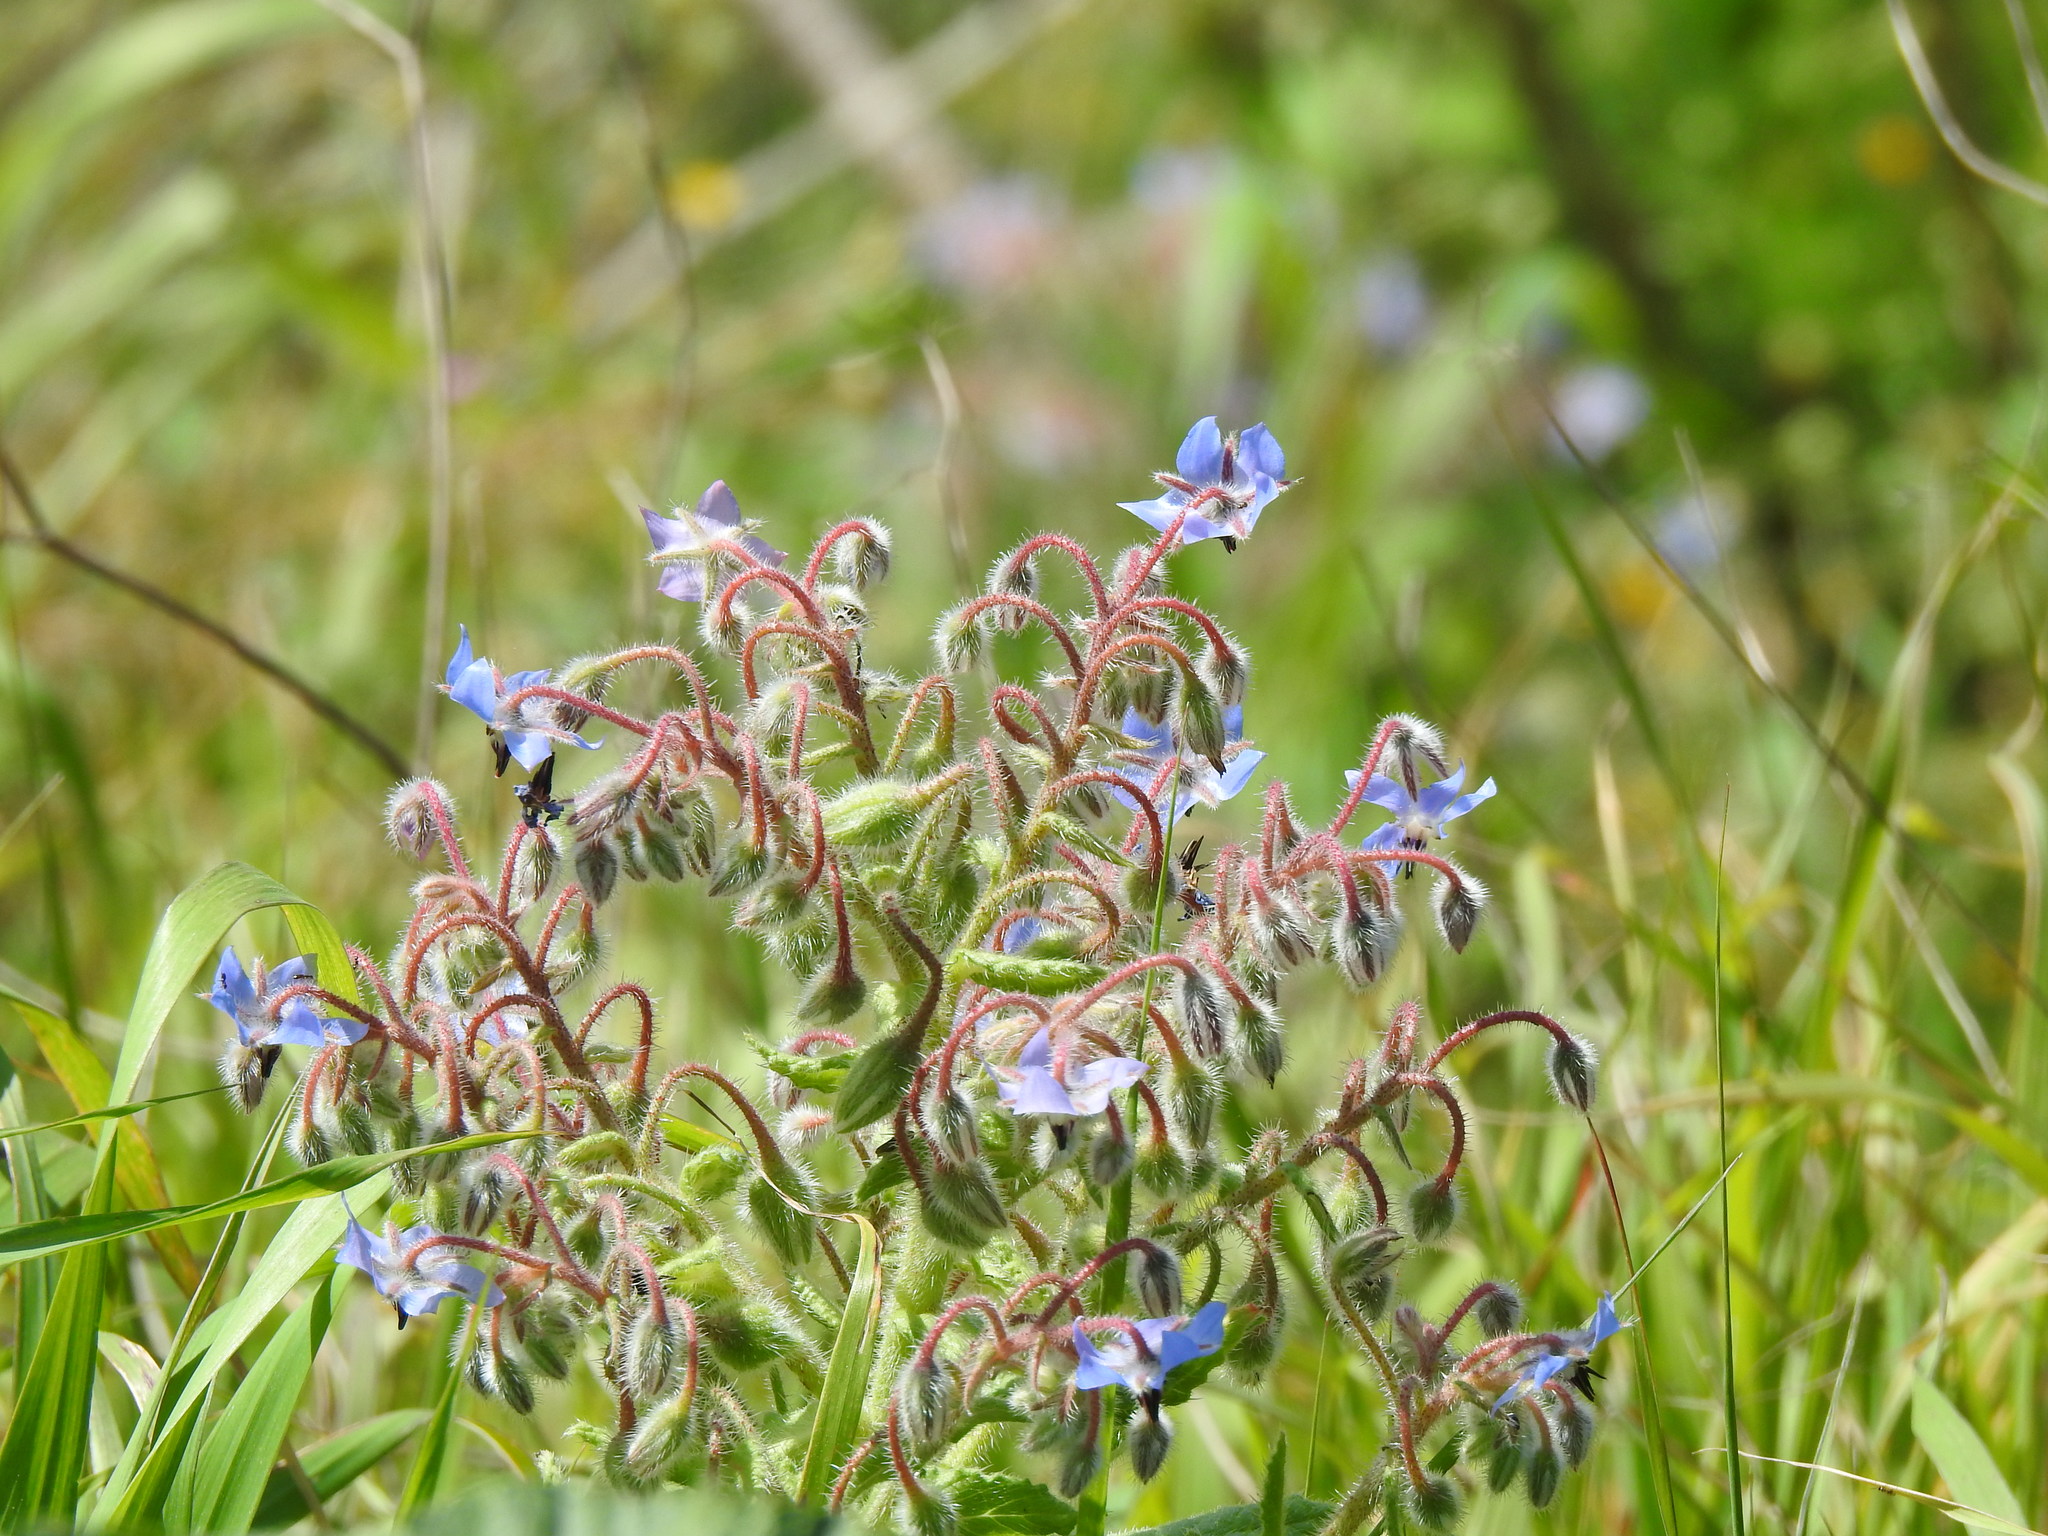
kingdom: Plantae
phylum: Tracheophyta
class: Magnoliopsida
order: Boraginales
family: Boraginaceae
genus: Borago
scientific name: Borago officinalis
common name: Borage
